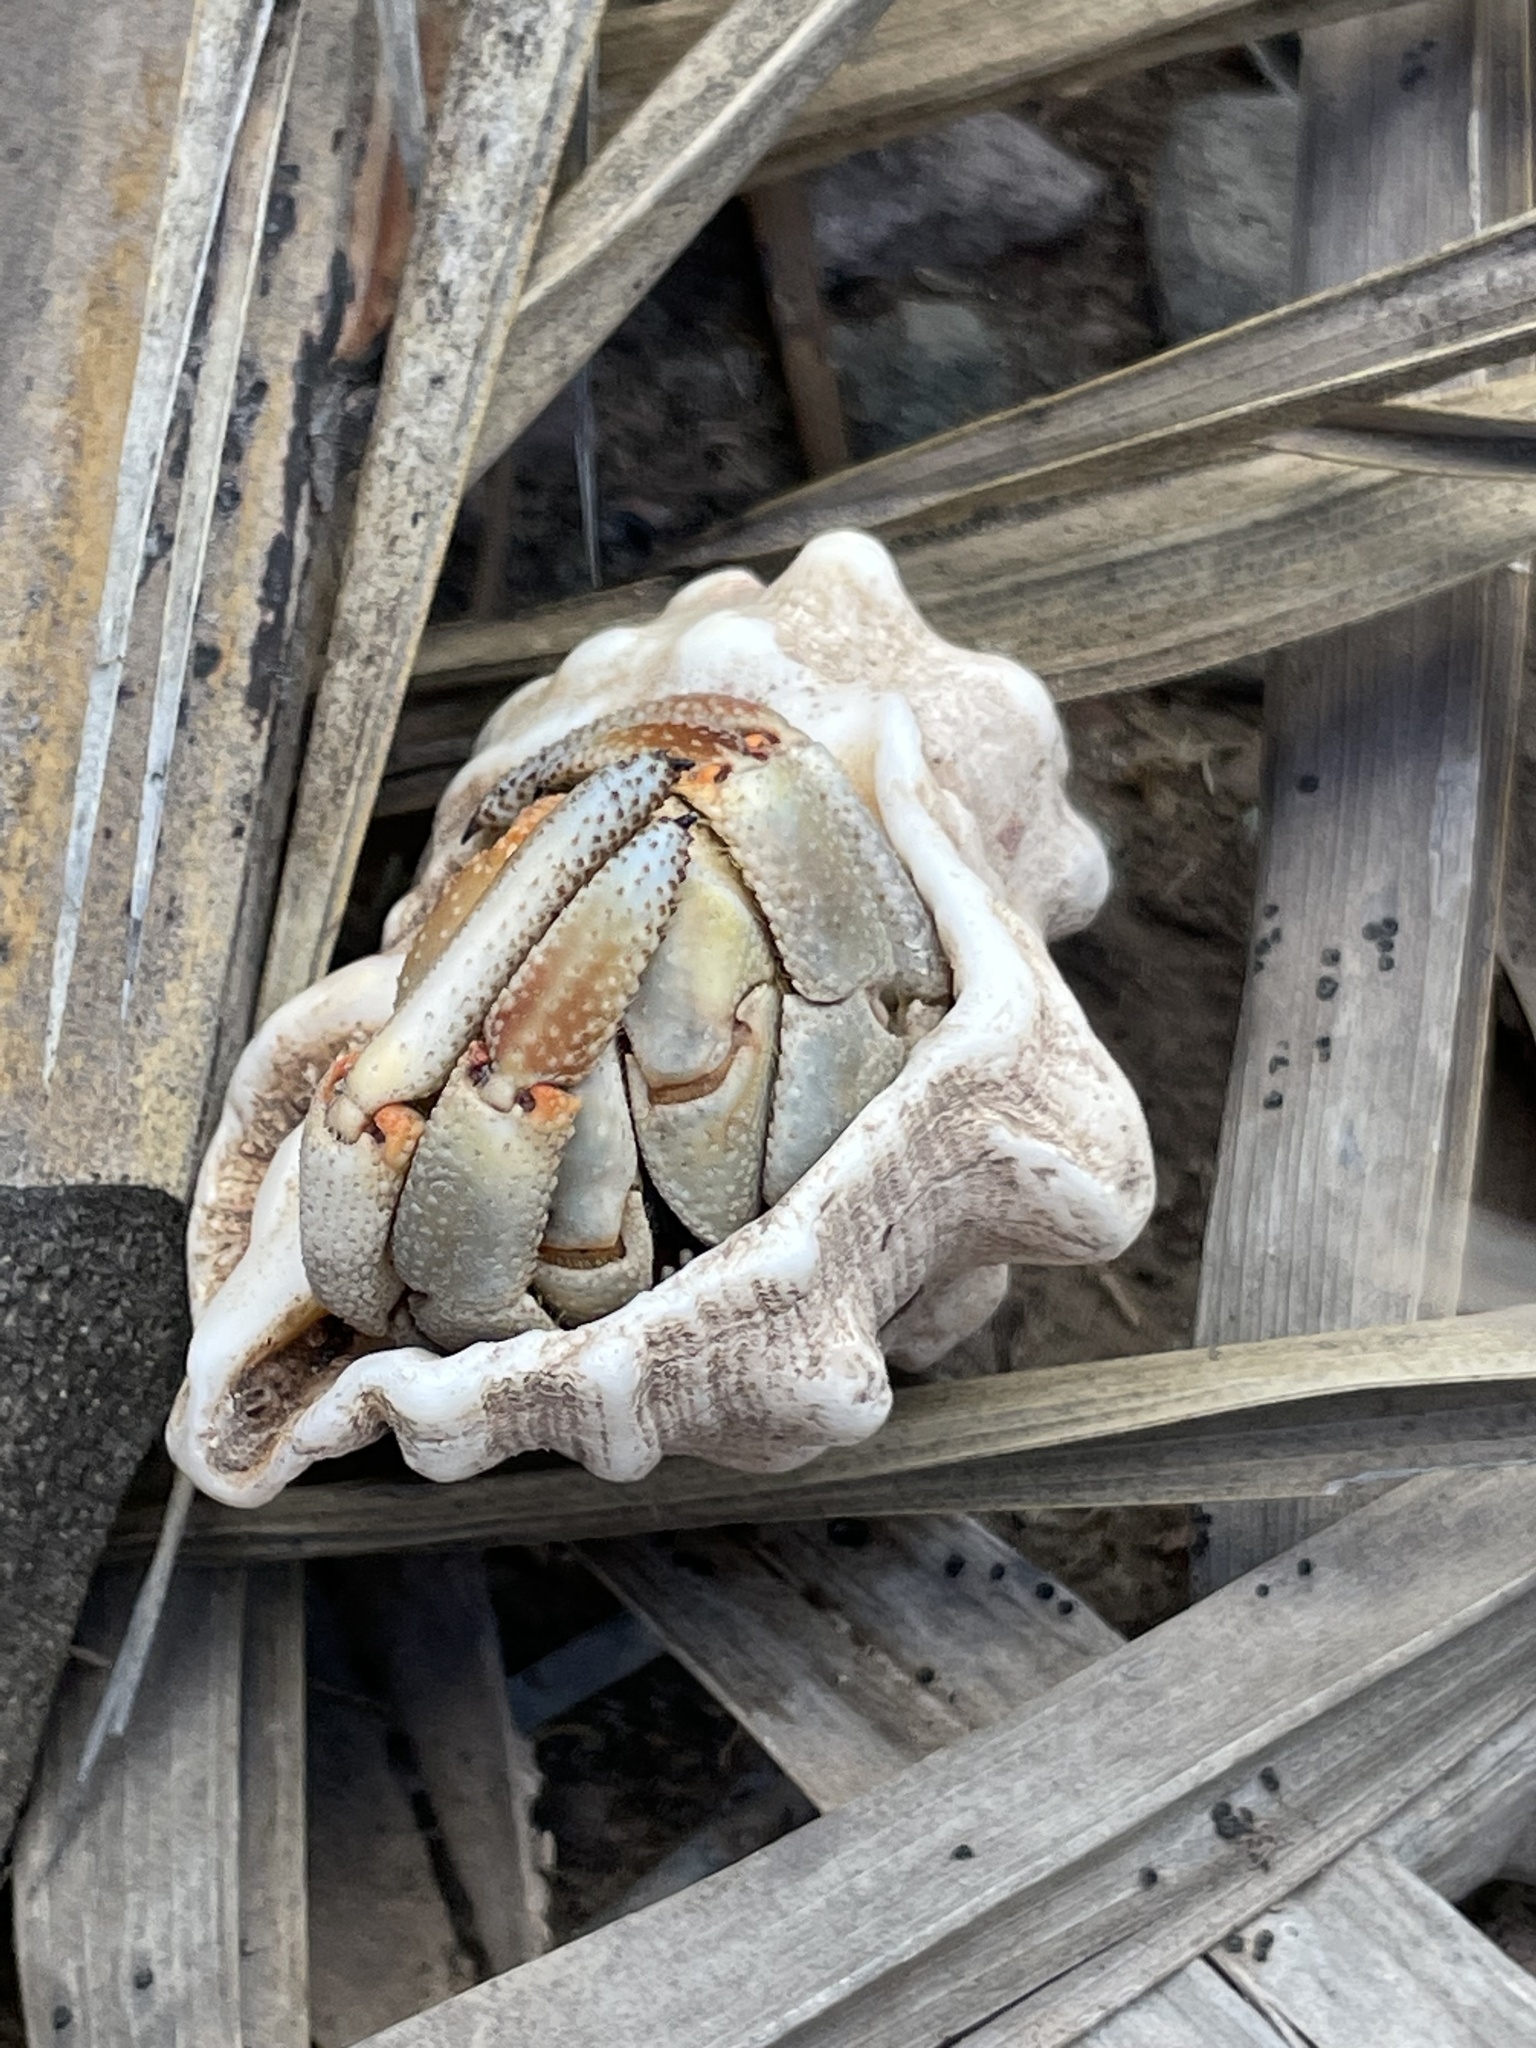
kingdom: Animalia
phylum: Arthropoda
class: Malacostraca
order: Decapoda
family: Coenobitidae
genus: Coenobita
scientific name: Coenobita compressus
